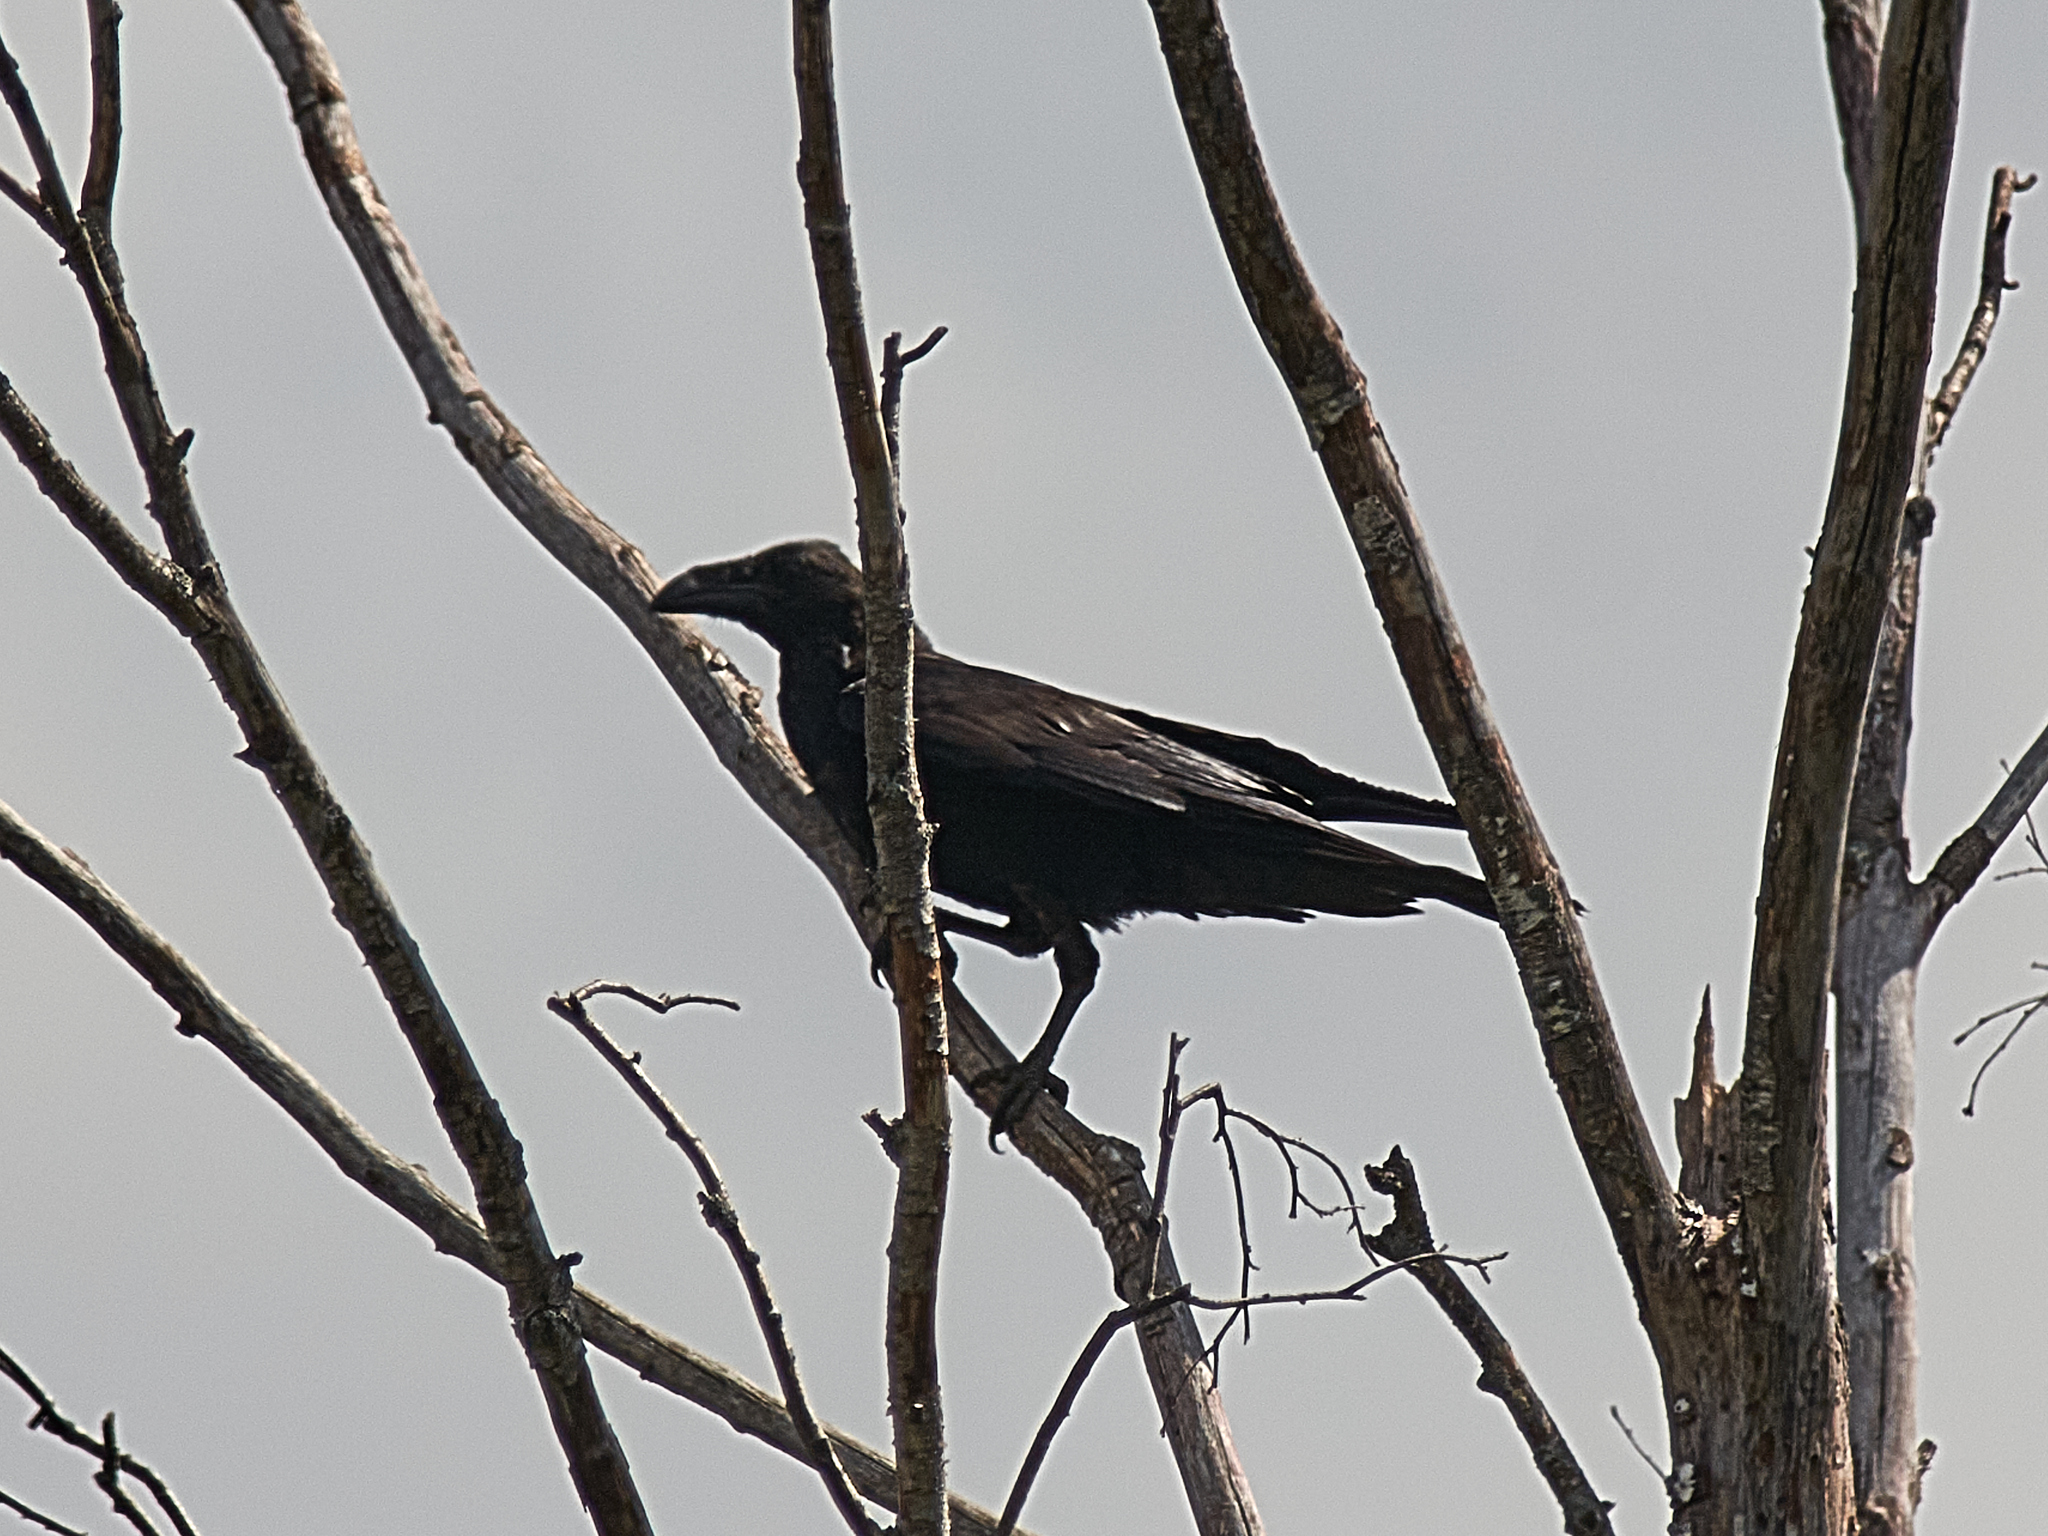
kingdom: Animalia
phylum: Chordata
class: Aves
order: Passeriformes
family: Corvidae
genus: Corvus
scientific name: Corvus corax
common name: Common raven
